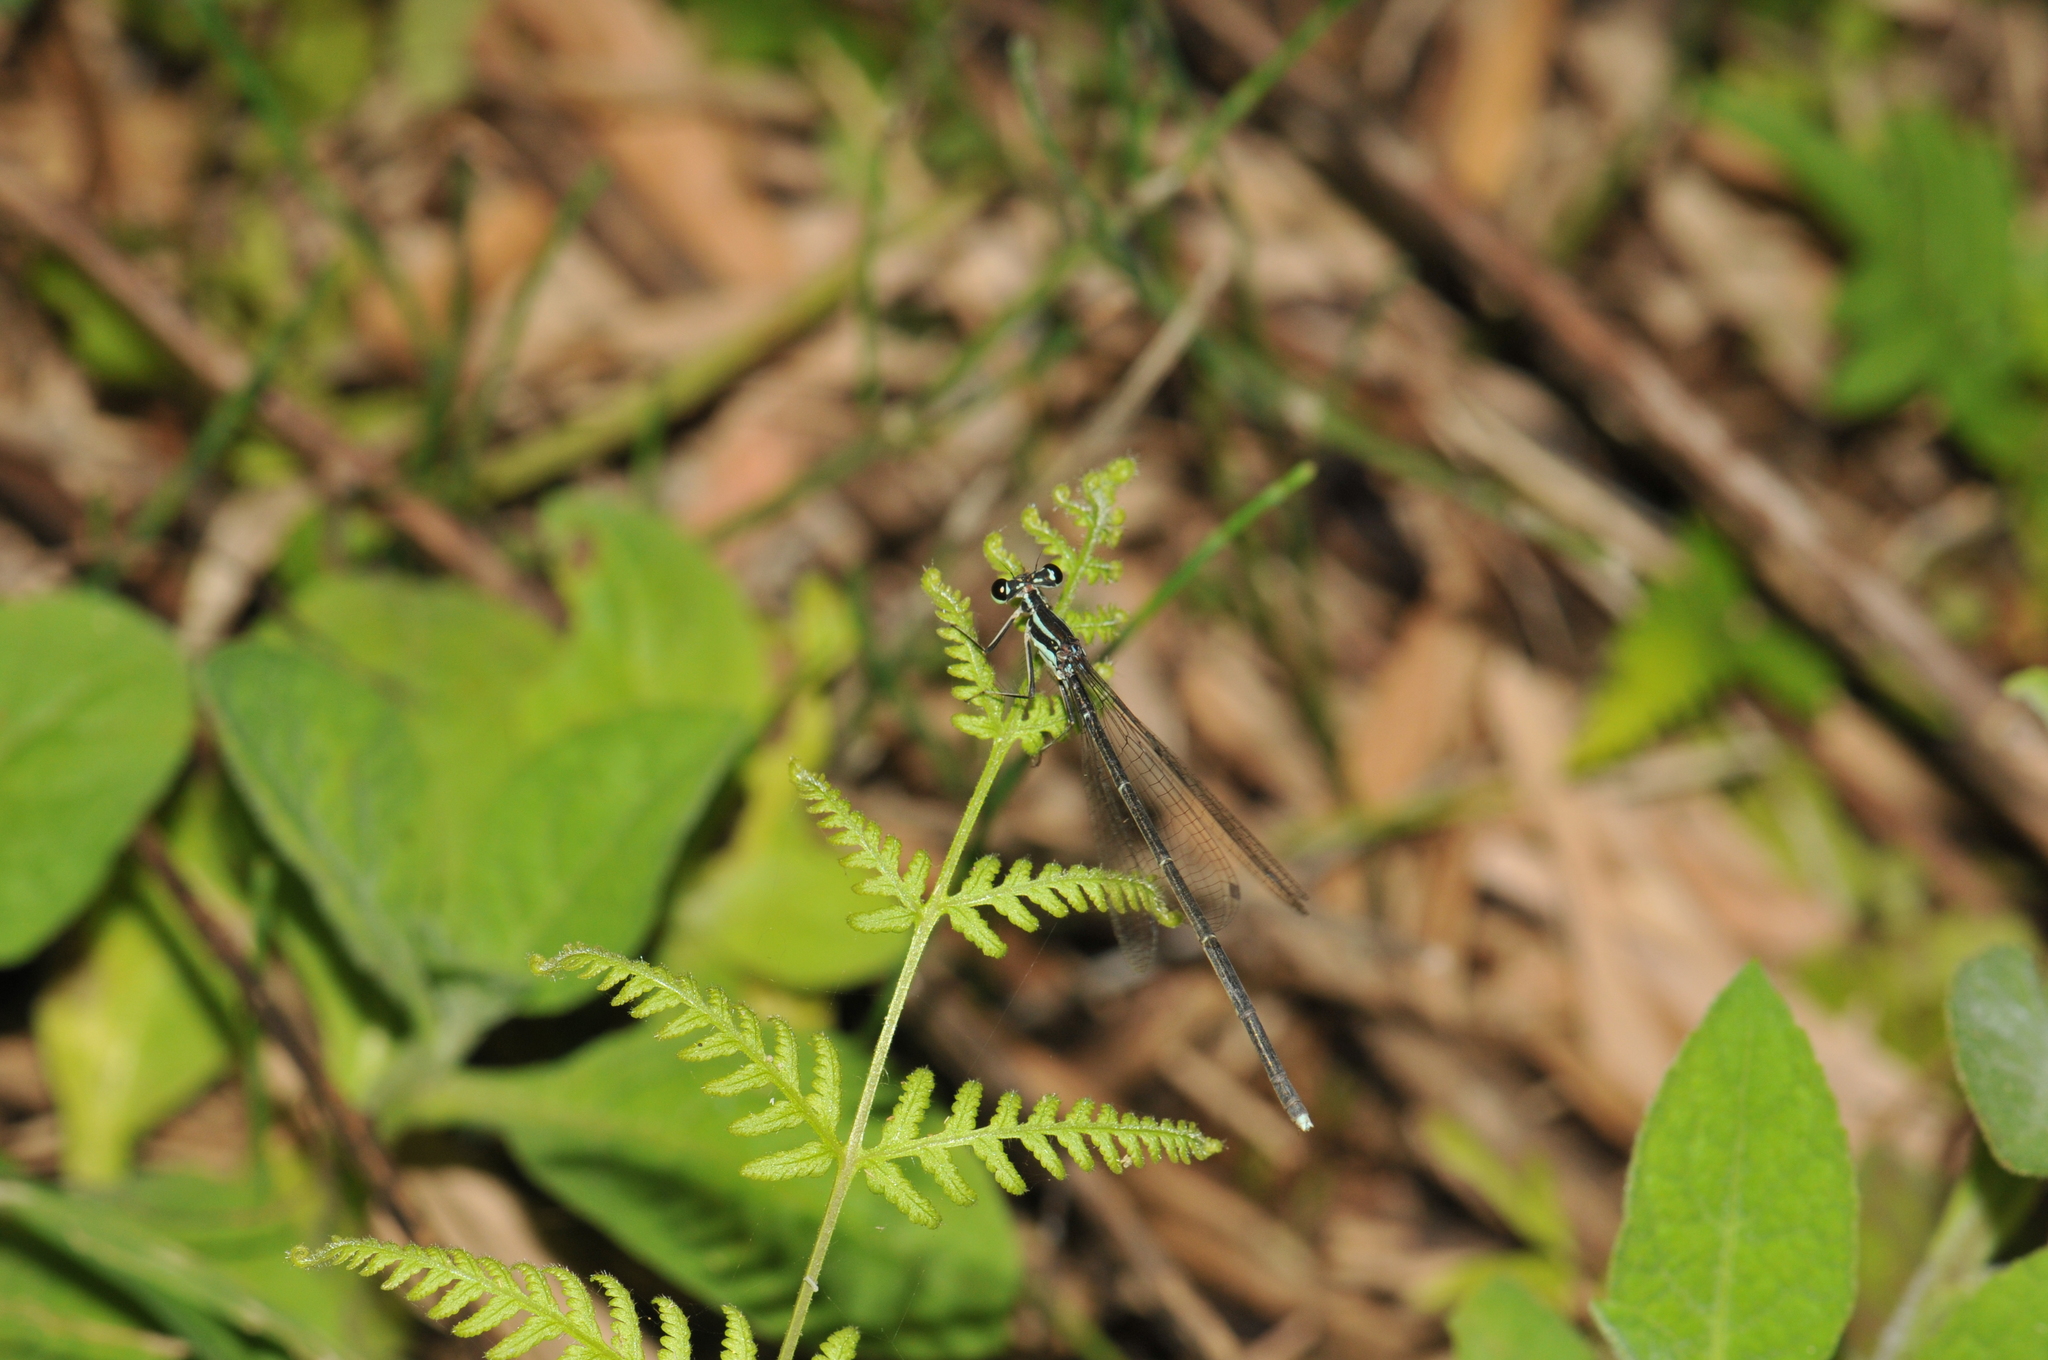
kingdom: Animalia
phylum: Arthropoda
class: Insecta
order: Odonata
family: Platycnemididae
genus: Pseudocopera
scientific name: Pseudocopera ciliata
